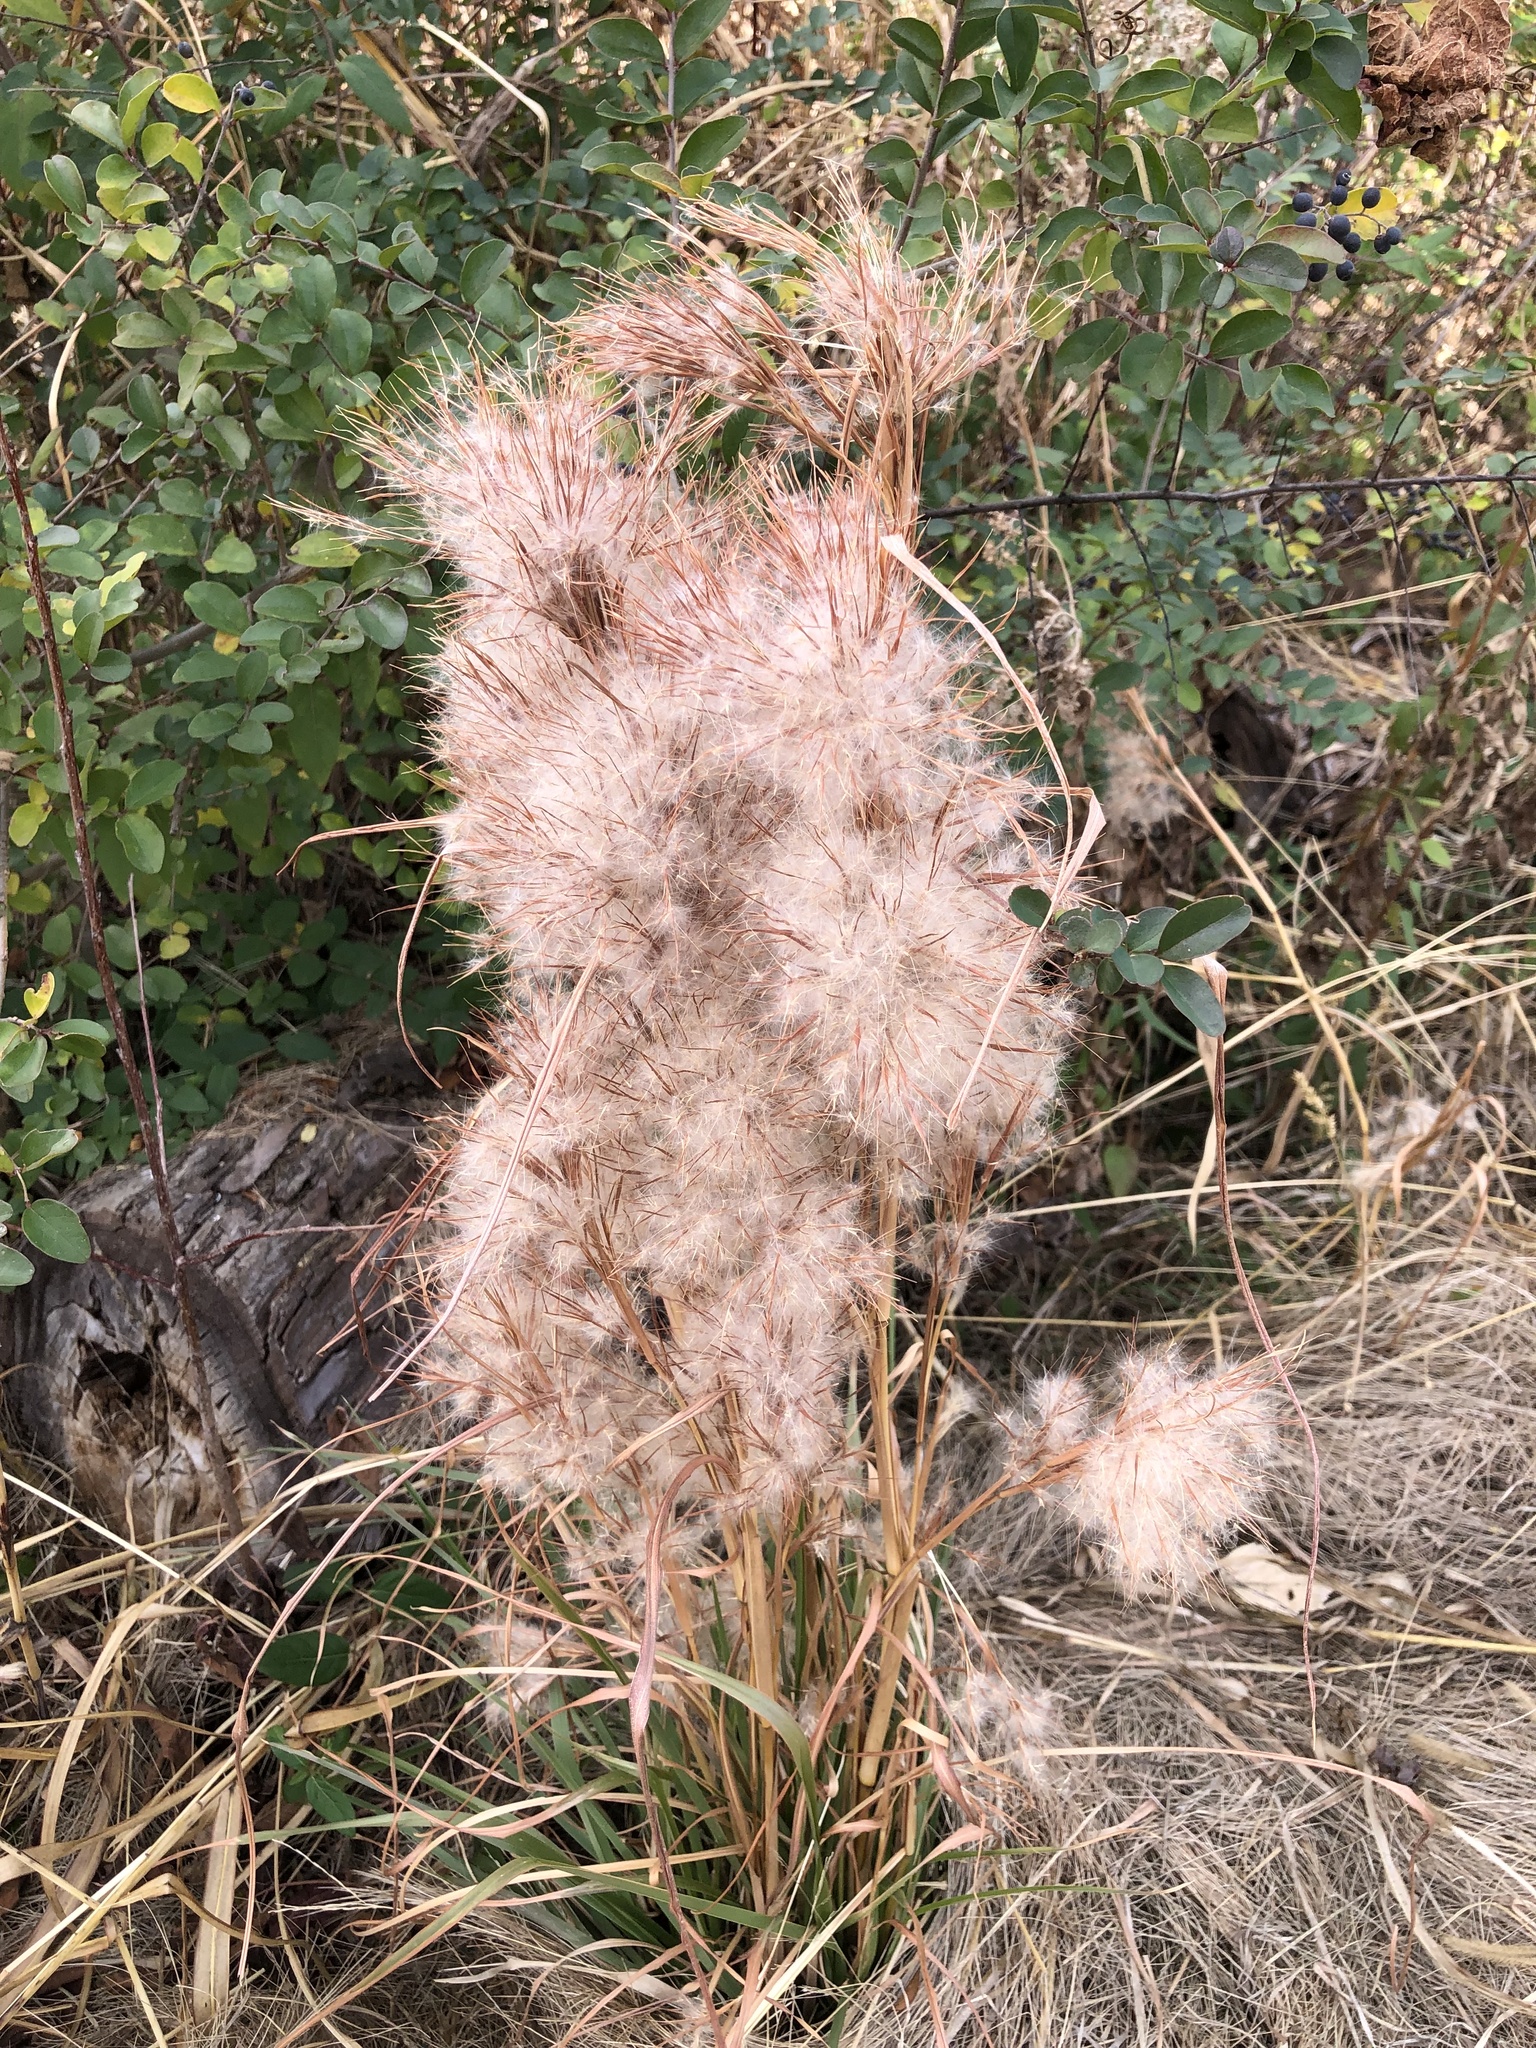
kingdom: Plantae
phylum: Tracheophyta
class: Liliopsida
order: Poales
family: Poaceae
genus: Andropogon
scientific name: Andropogon tenuispatheus
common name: Bushy bluestem
